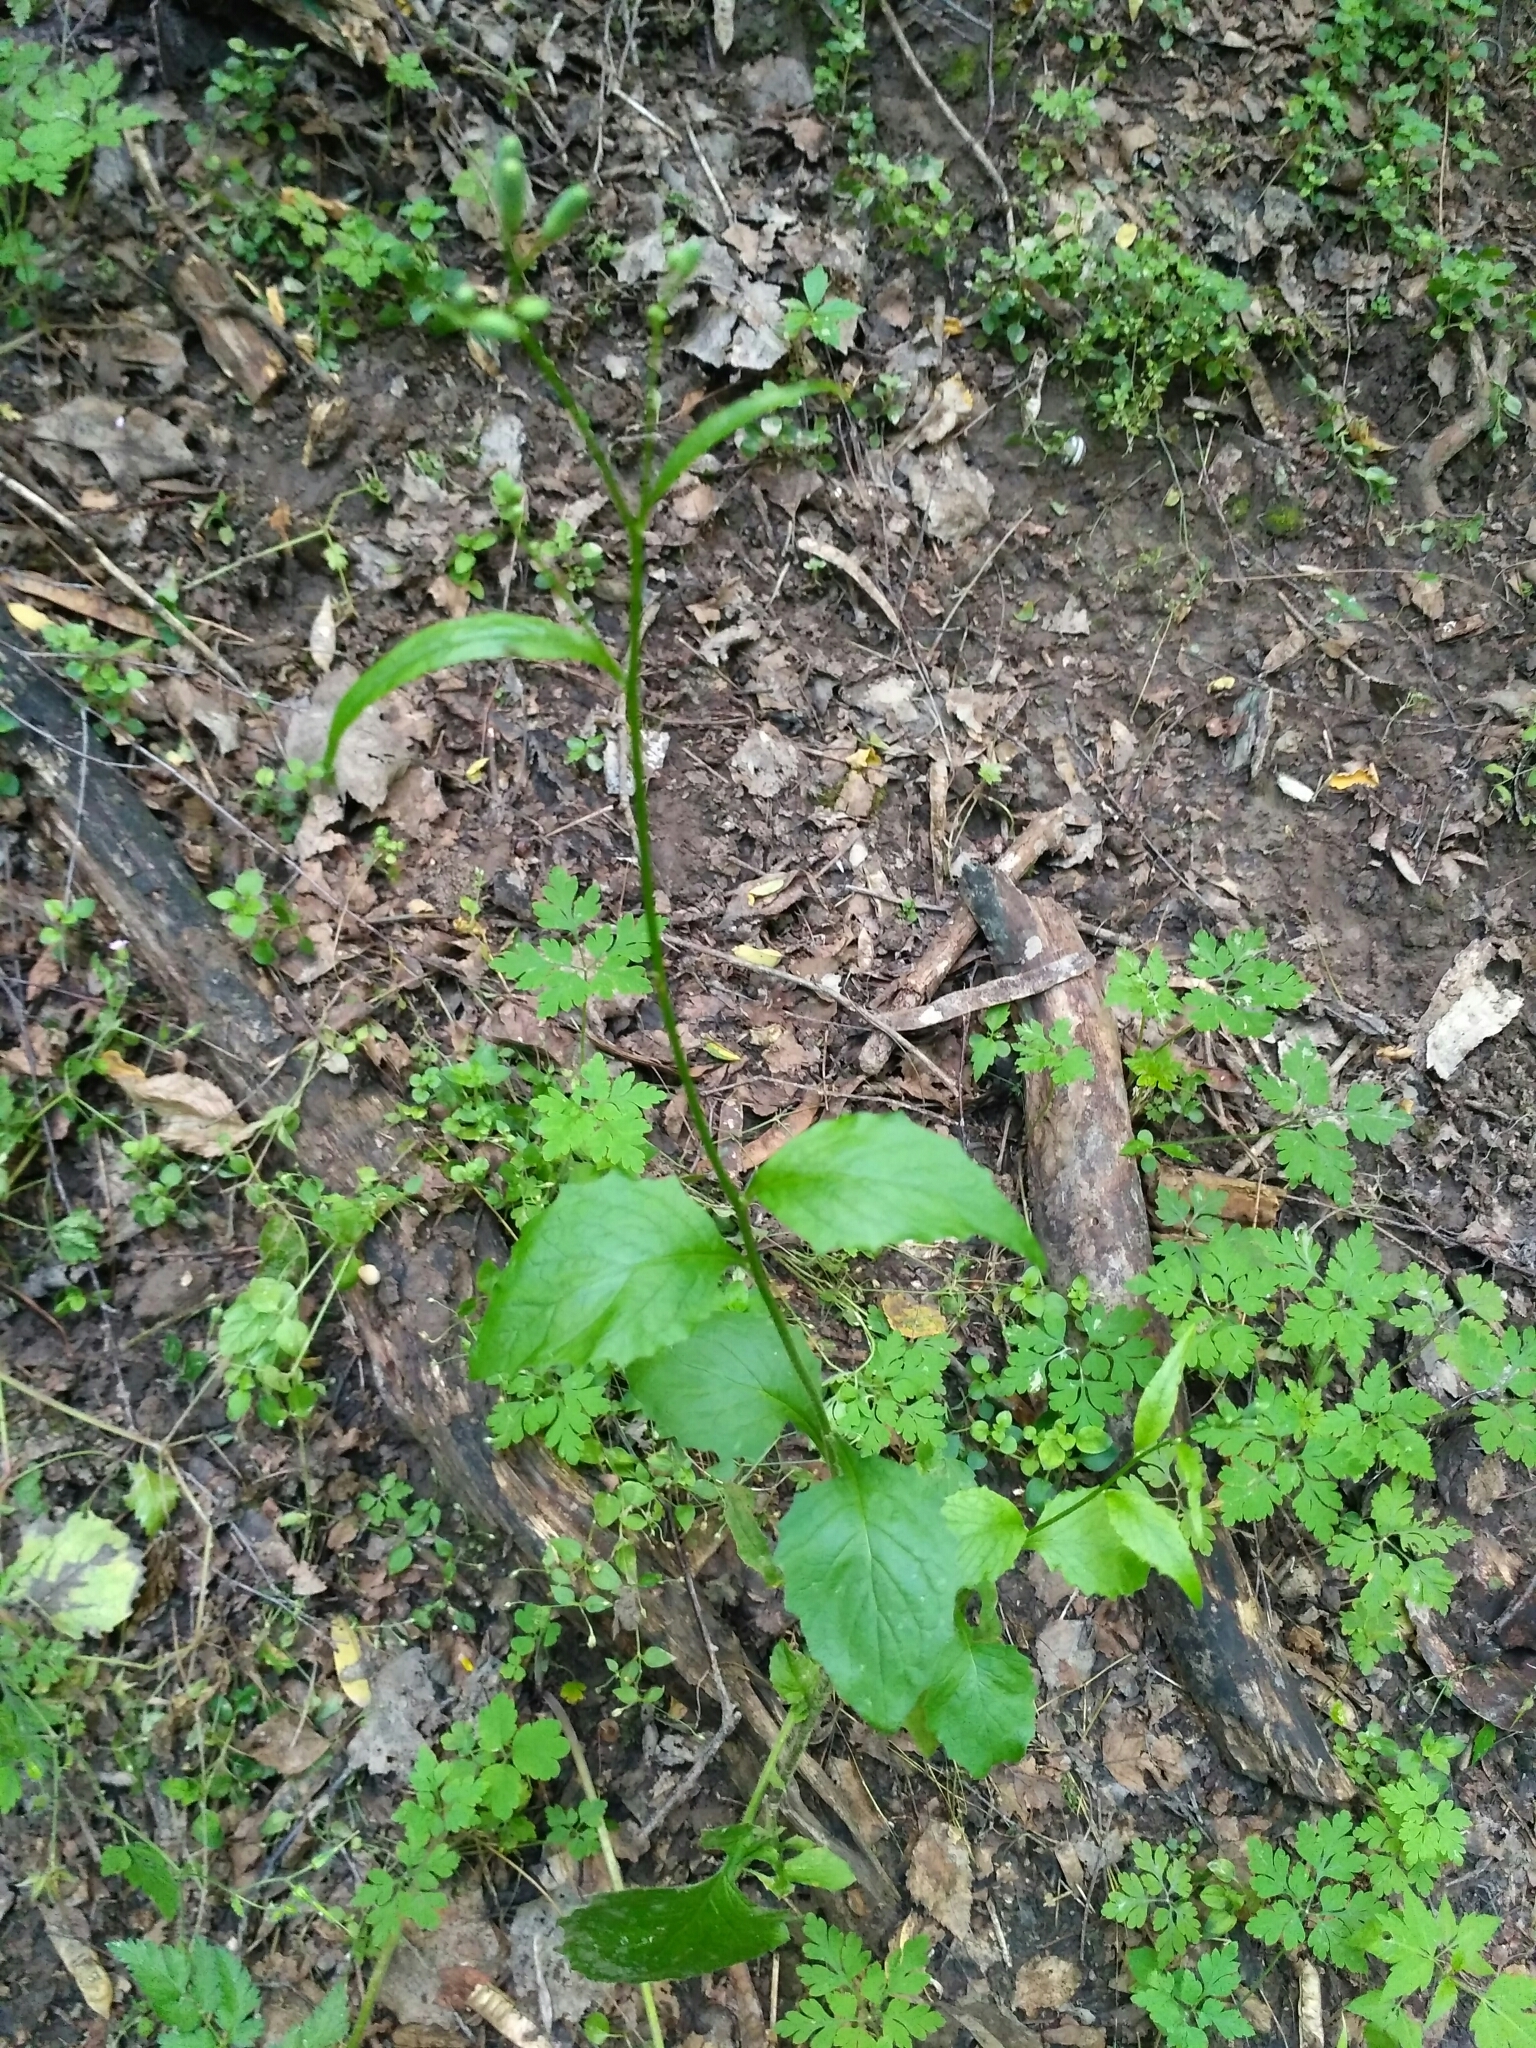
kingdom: Plantae
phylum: Tracheophyta
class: Magnoliopsida
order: Asterales
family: Asteraceae
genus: Lapsana
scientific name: Lapsana communis
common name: Nipplewort
